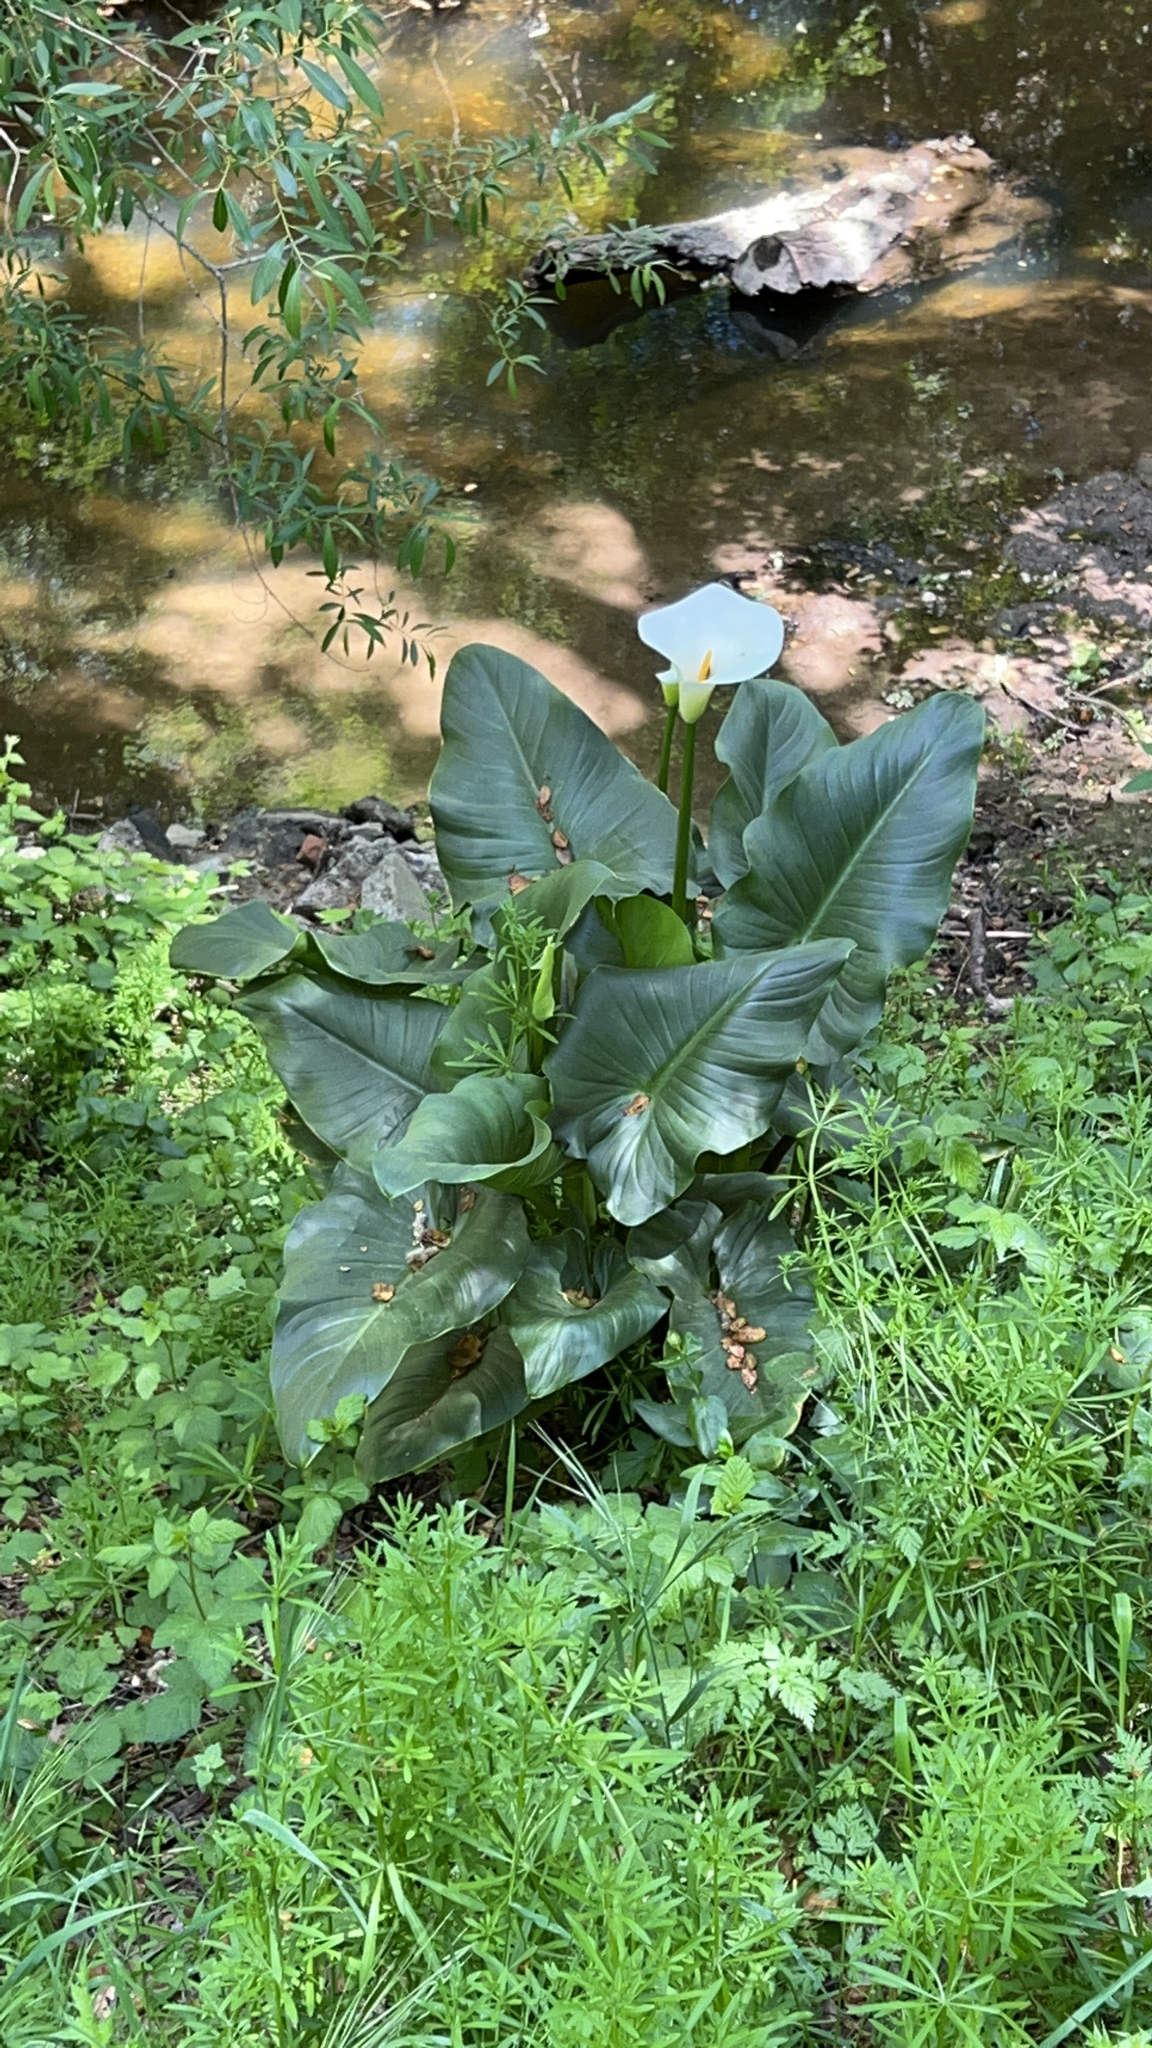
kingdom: Plantae
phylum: Tracheophyta
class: Liliopsida
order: Alismatales
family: Araceae
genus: Zantedeschia
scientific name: Zantedeschia aethiopica
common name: Altar-lily
